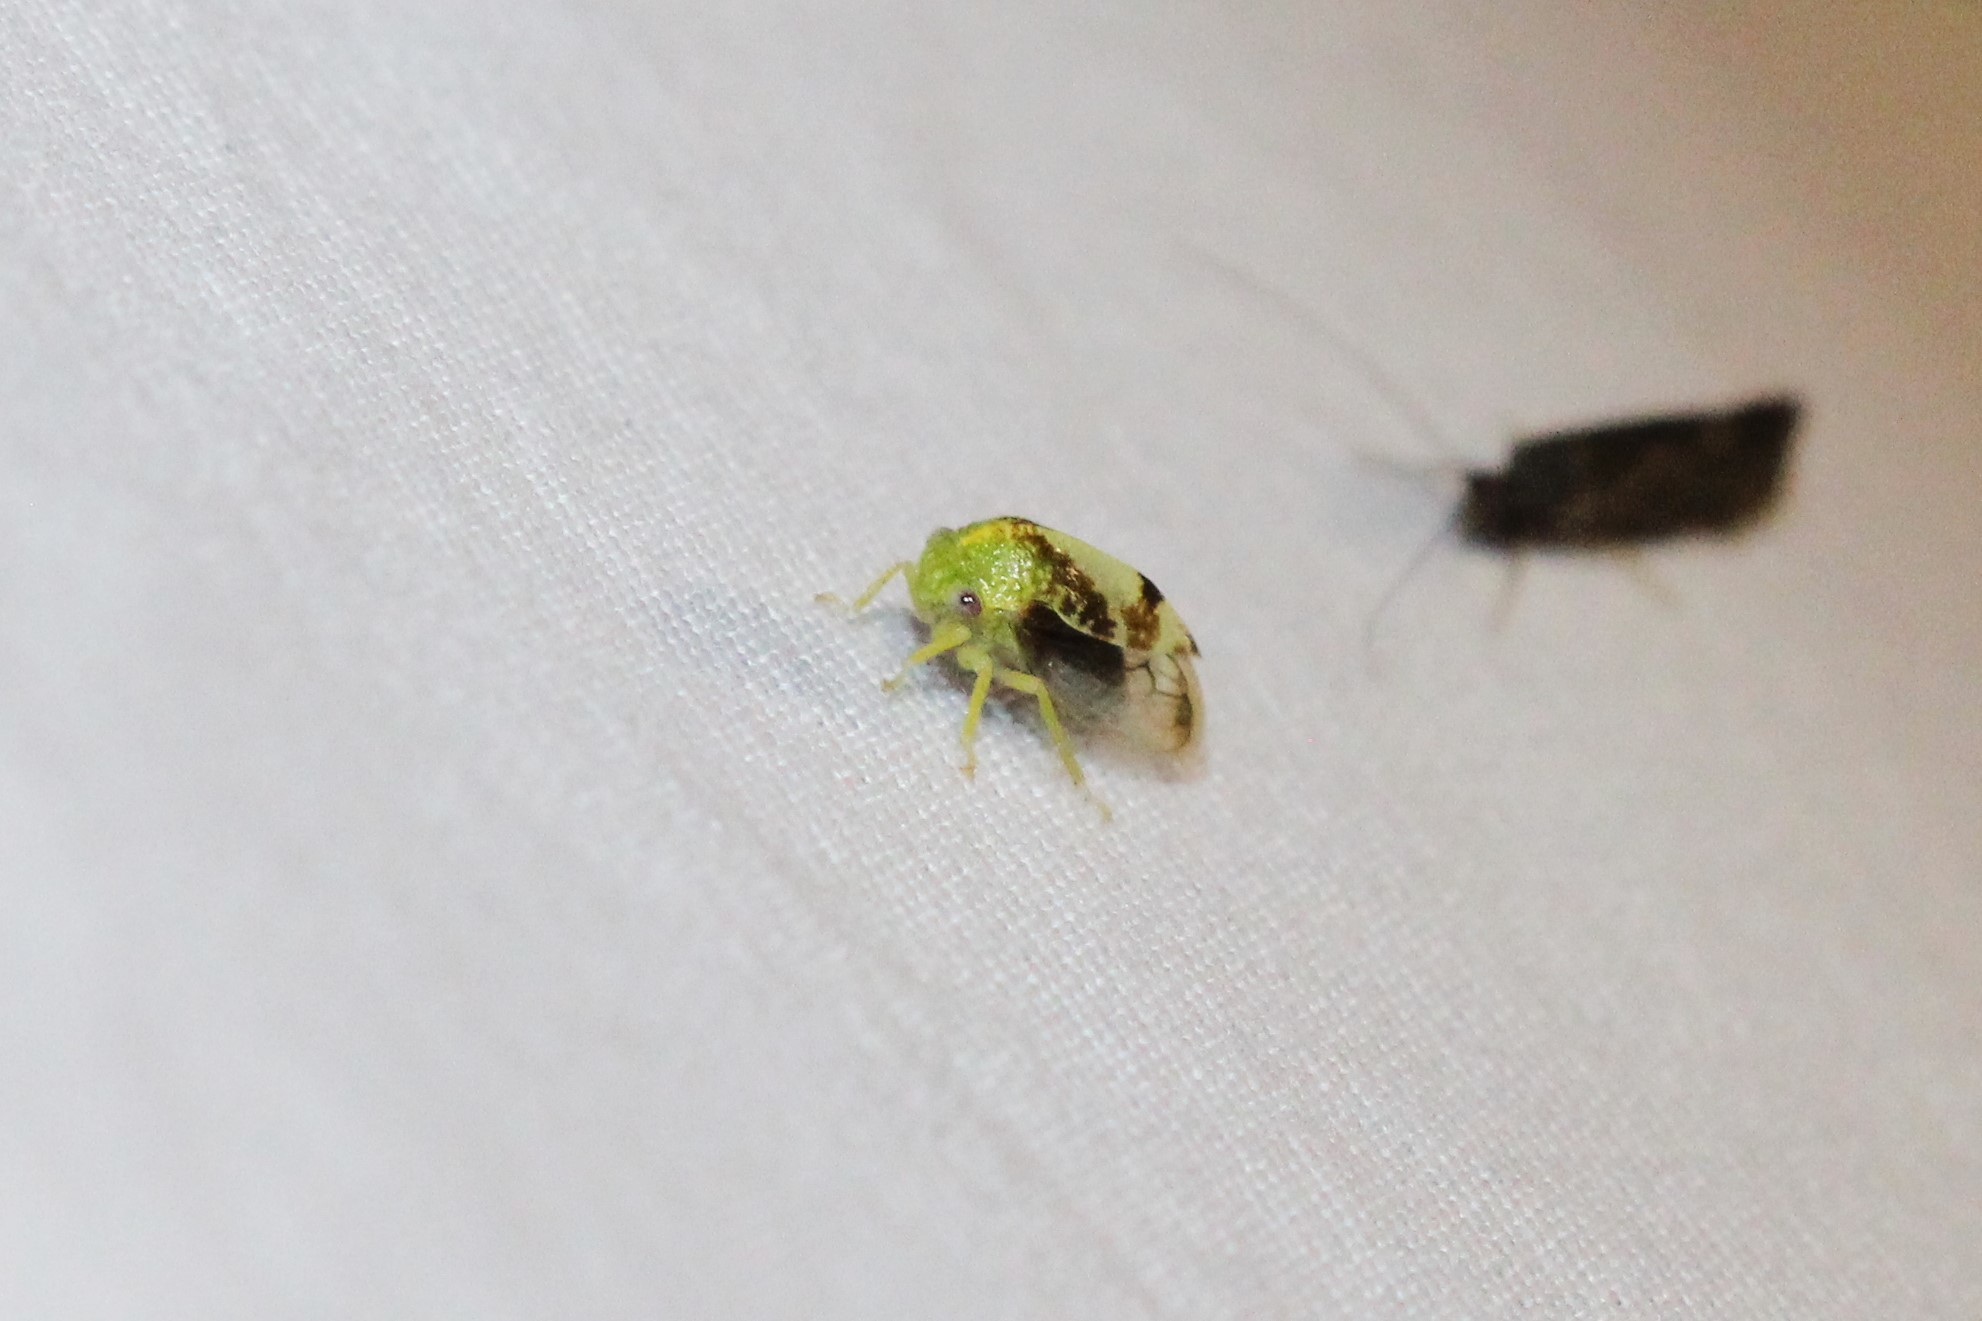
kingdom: Animalia
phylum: Arthropoda
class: Insecta
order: Hemiptera
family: Membracidae
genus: Atymna
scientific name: Atymna helena
